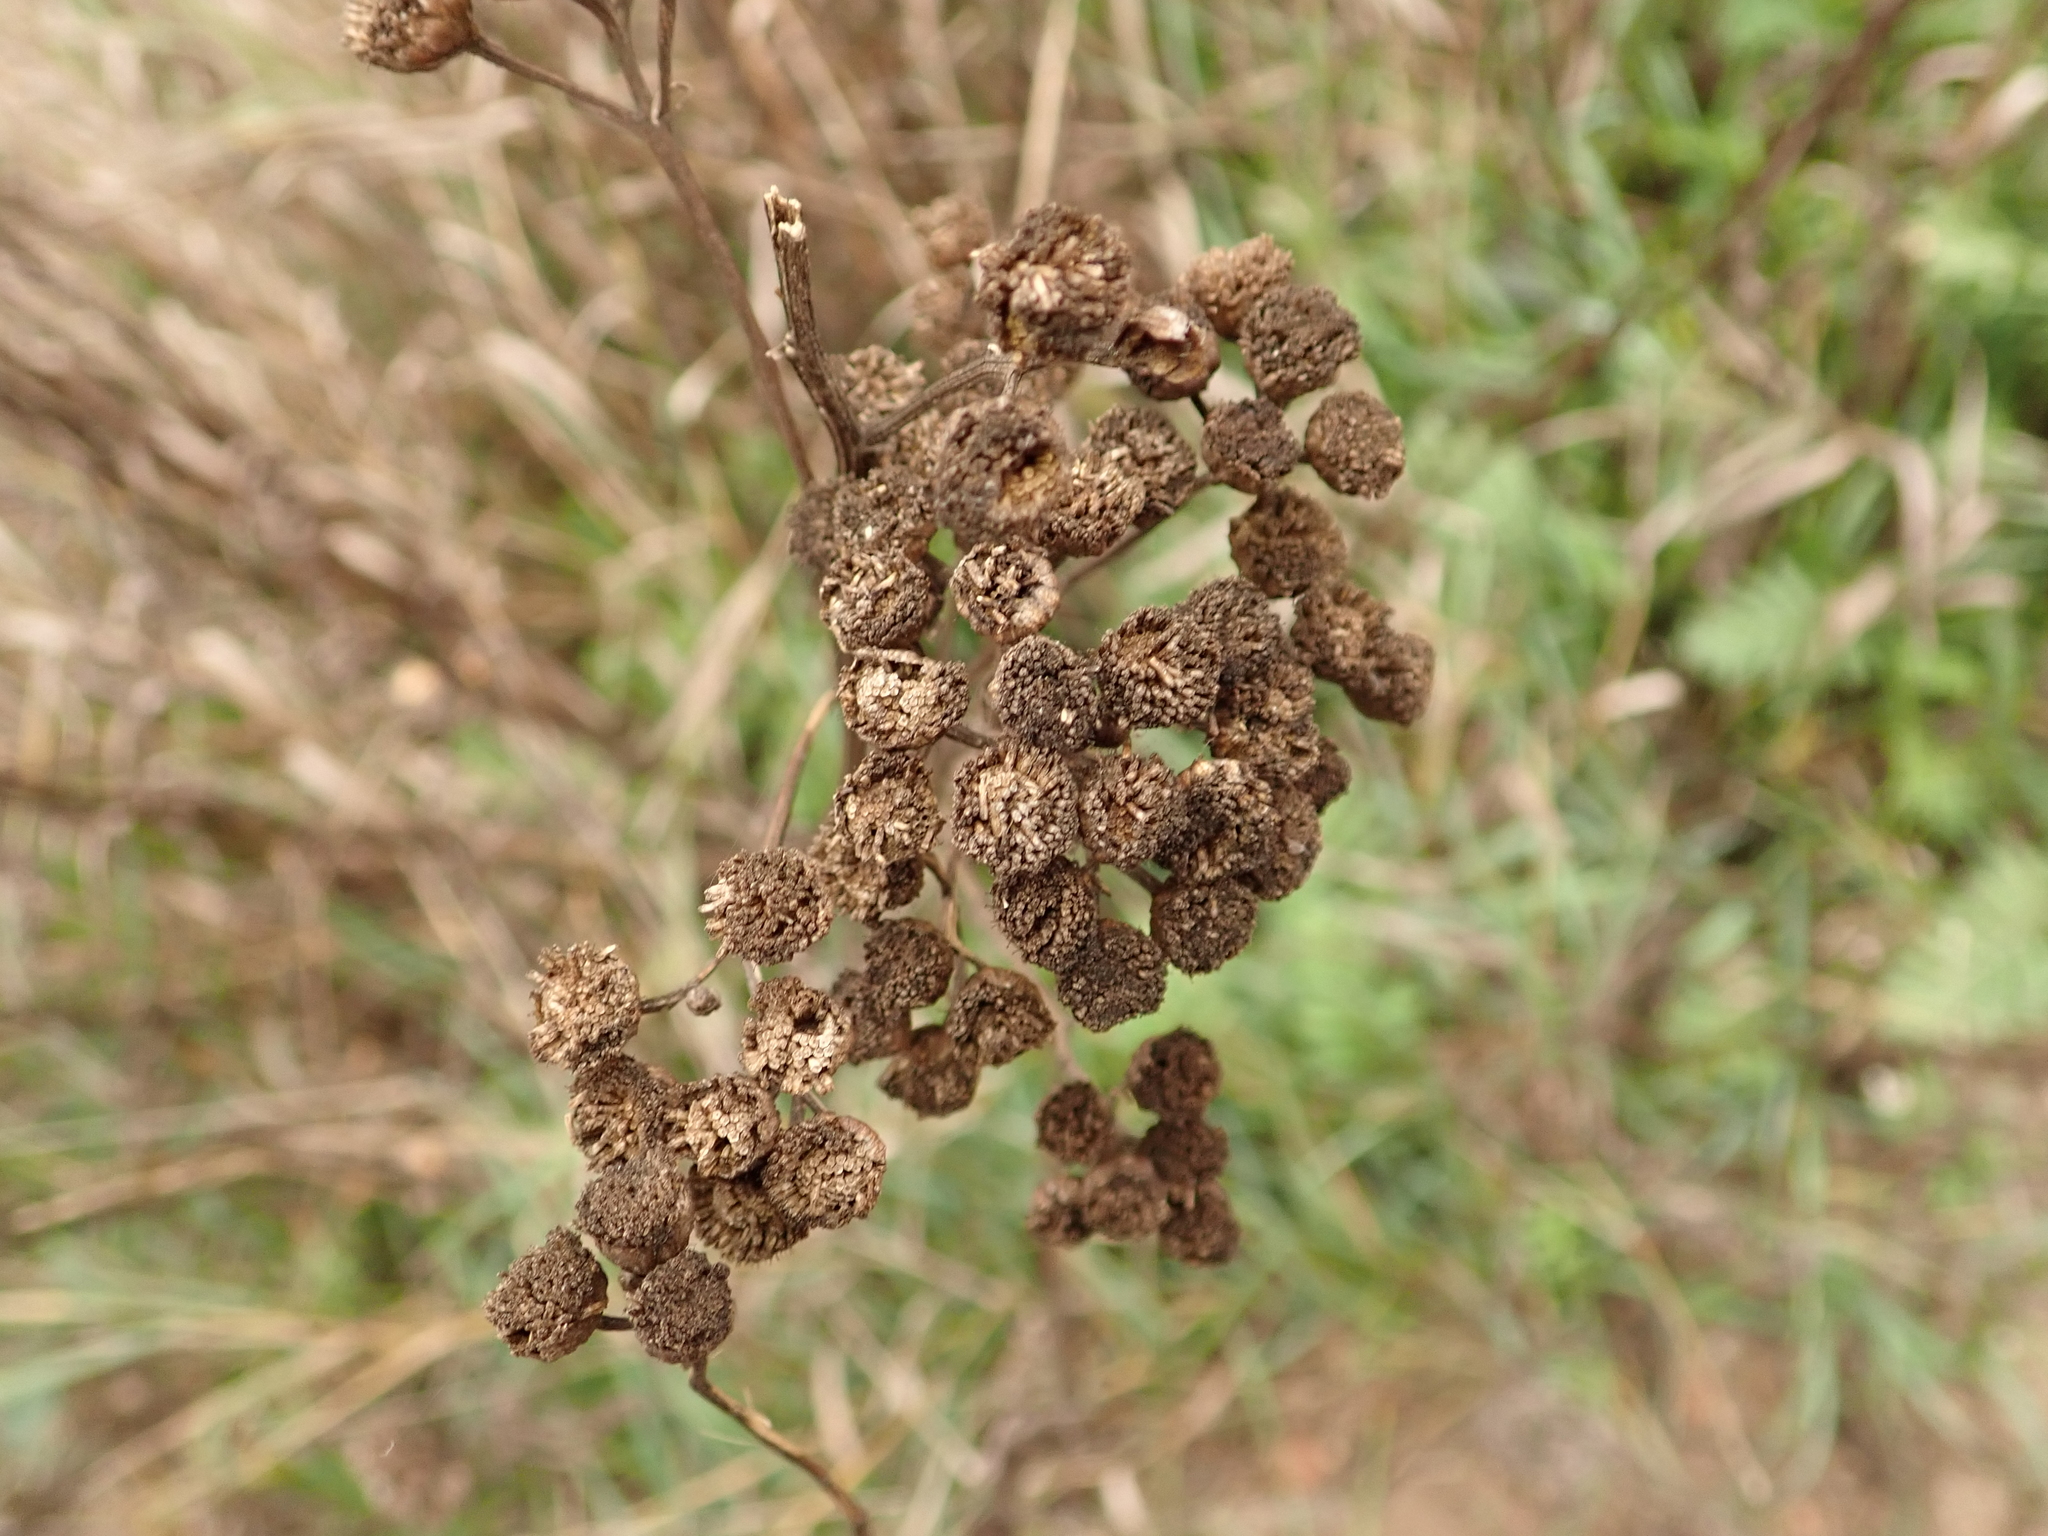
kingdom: Plantae
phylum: Tracheophyta
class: Magnoliopsida
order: Asterales
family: Asteraceae
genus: Tanacetum
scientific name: Tanacetum vulgare
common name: Common tansy
